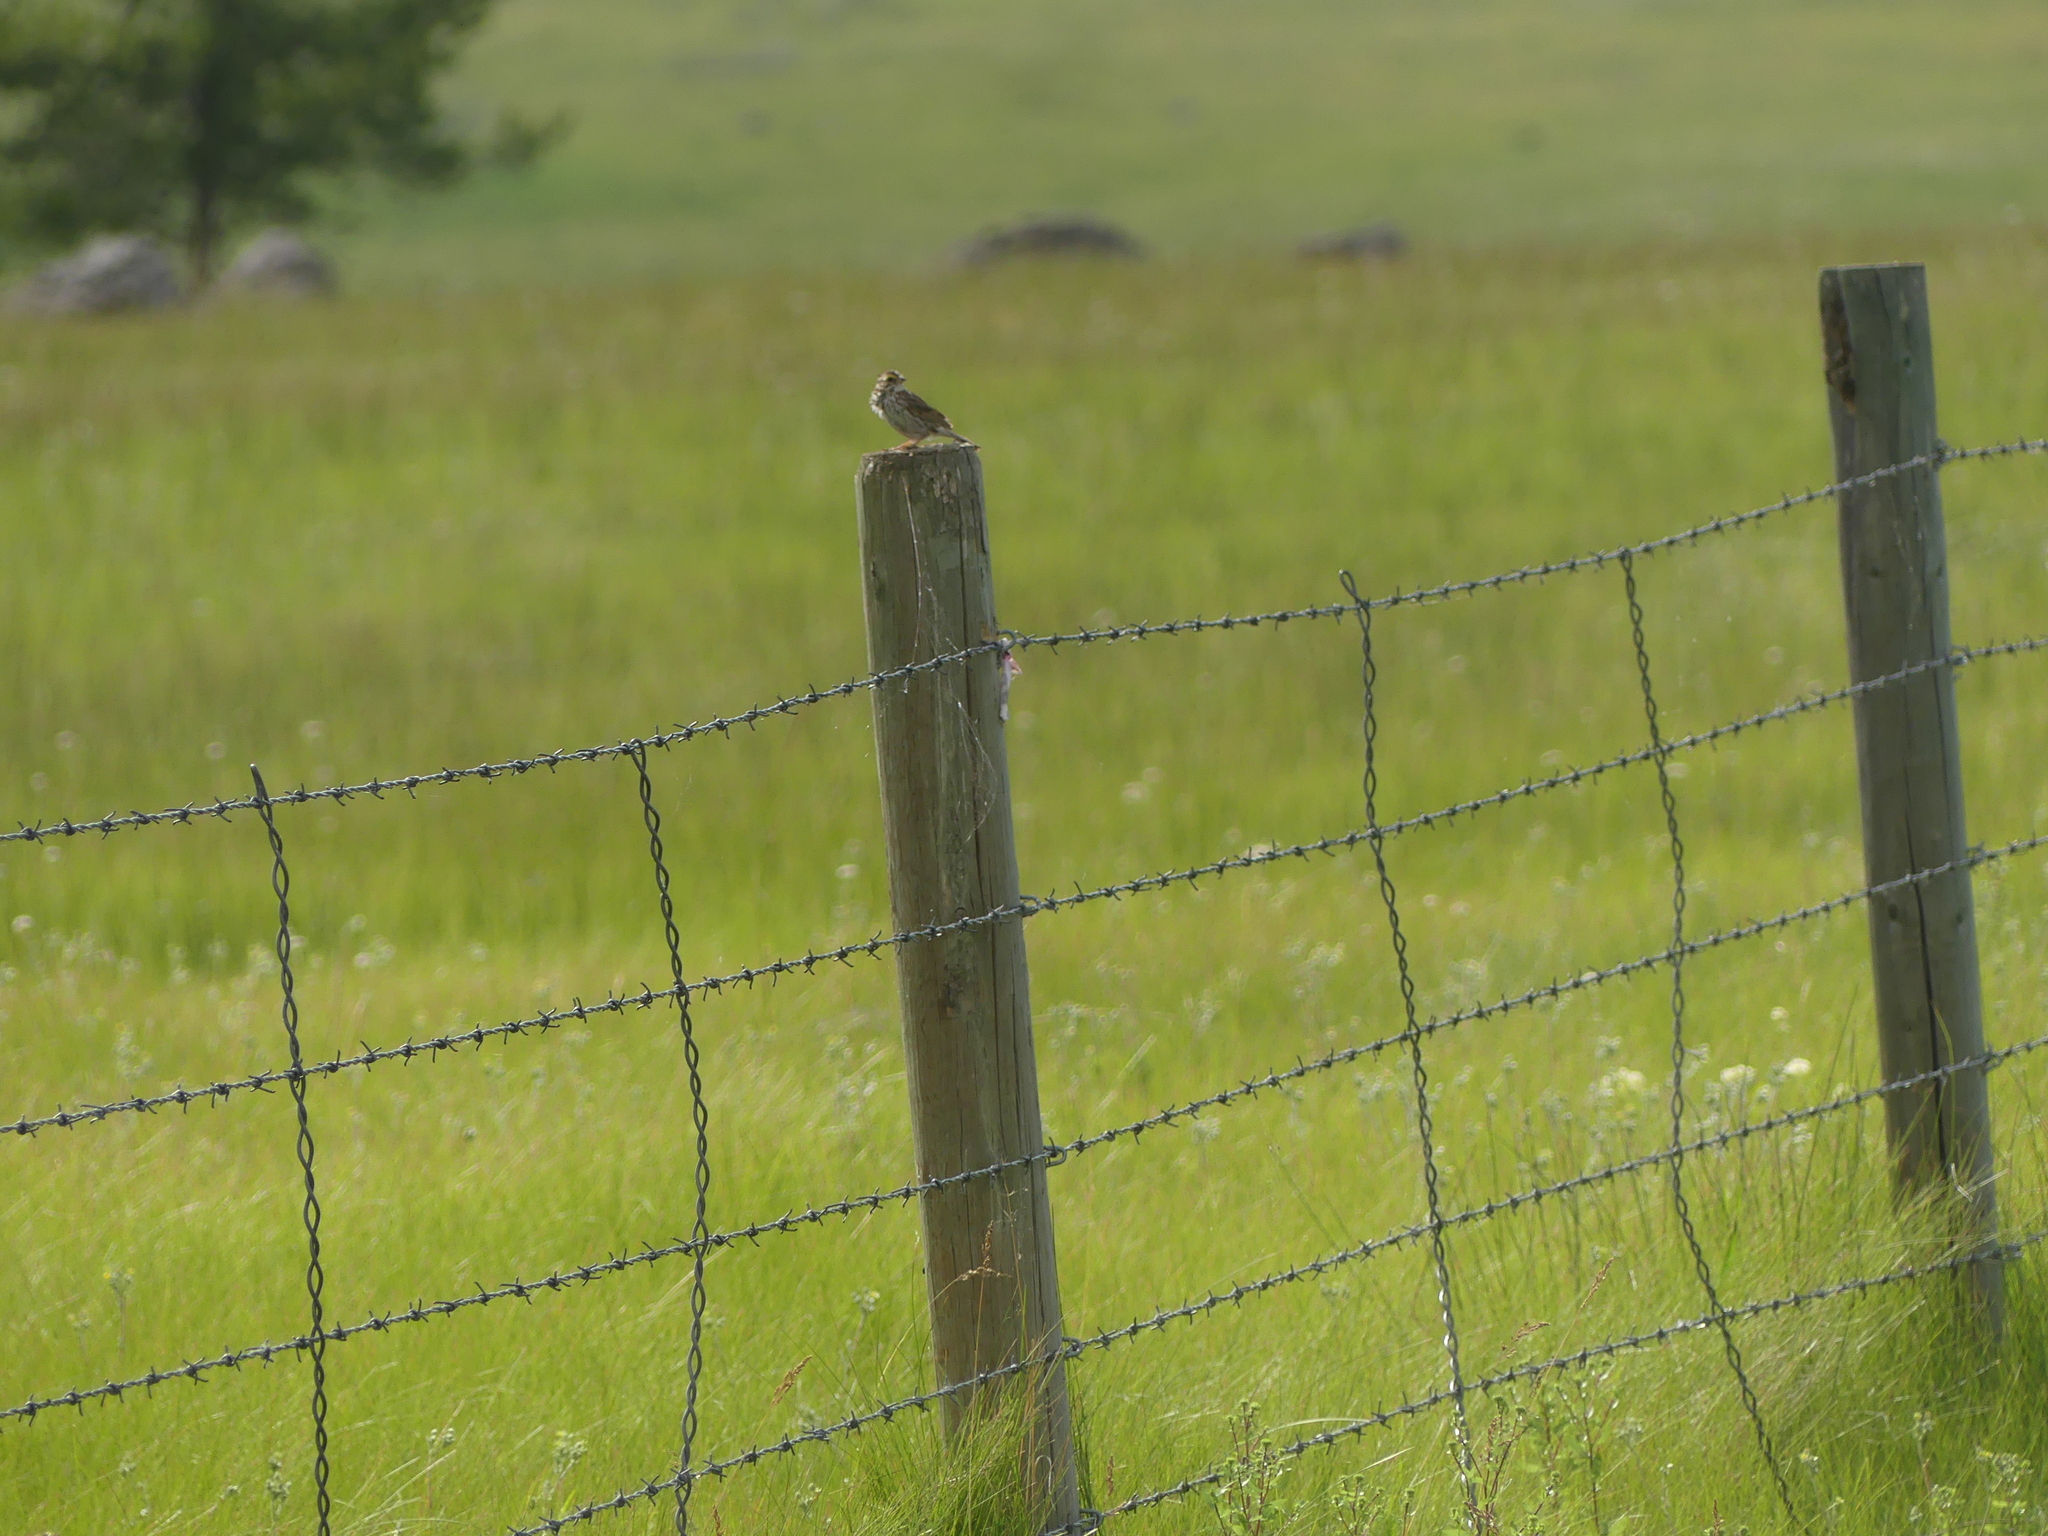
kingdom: Animalia
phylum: Chordata
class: Aves
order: Passeriformes
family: Passerellidae
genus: Passerculus
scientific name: Passerculus sandwichensis
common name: Savannah sparrow
